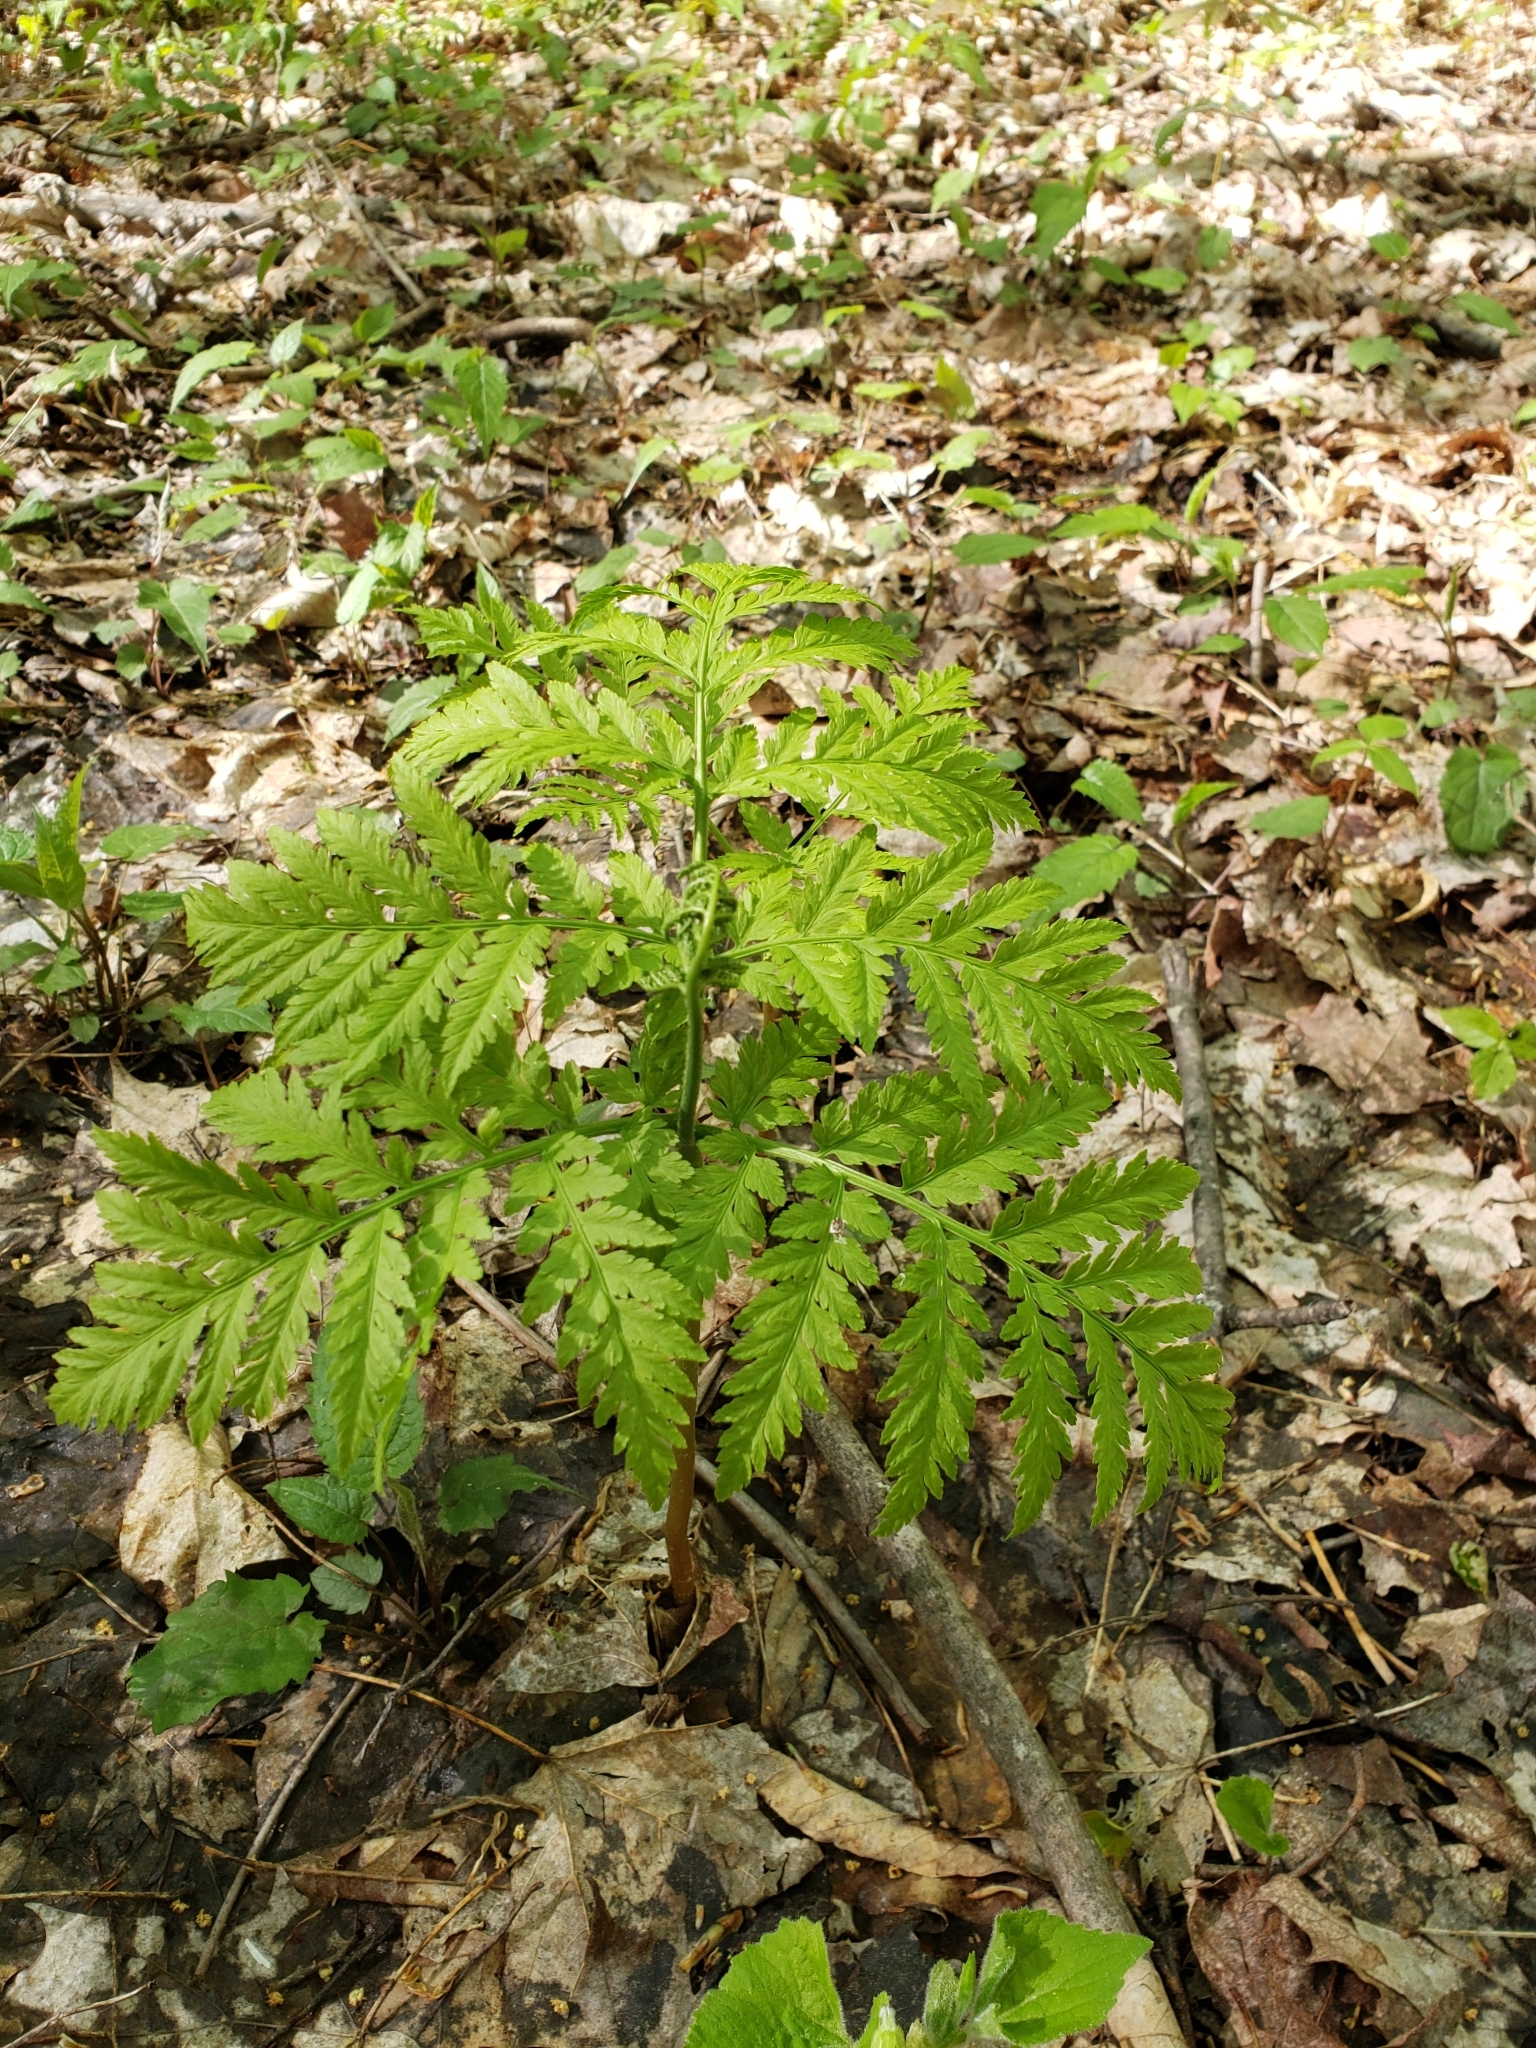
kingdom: Plantae
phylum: Tracheophyta
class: Polypodiopsida
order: Ophioglossales
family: Ophioglossaceae
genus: Botrypus
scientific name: Botrypus virginianus
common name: Common grapefern
